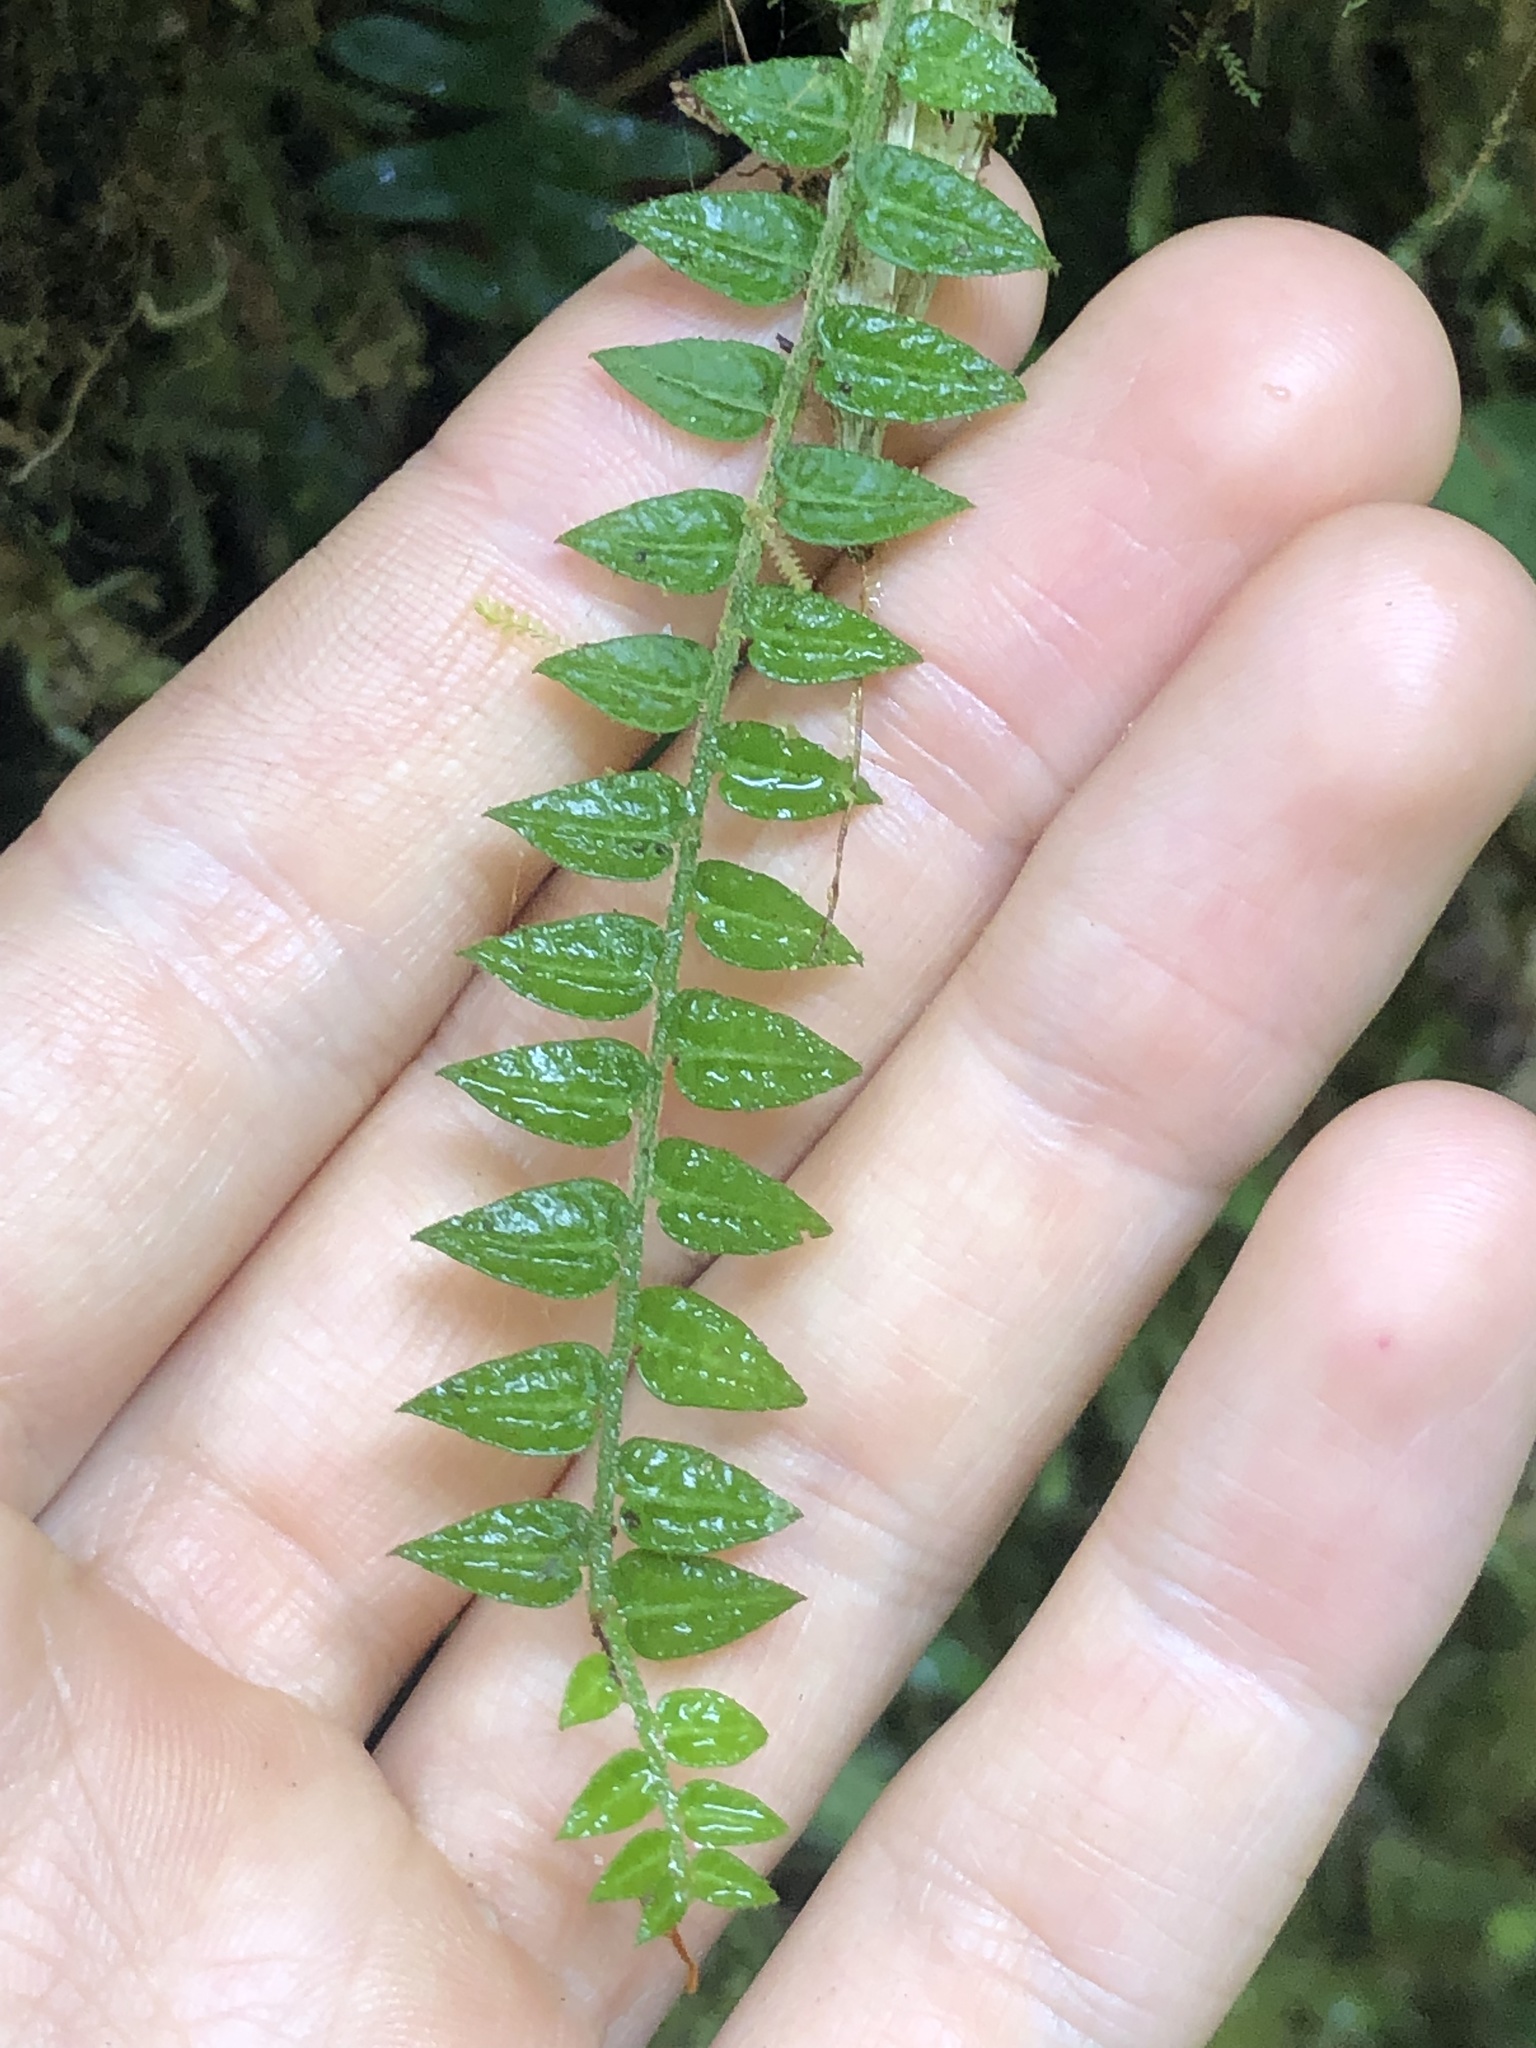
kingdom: Plantae
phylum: Tracheophyta
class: Magnoliopsida
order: Piperales
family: Piperaceae
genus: Peperomia
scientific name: Peperomia tovariana
